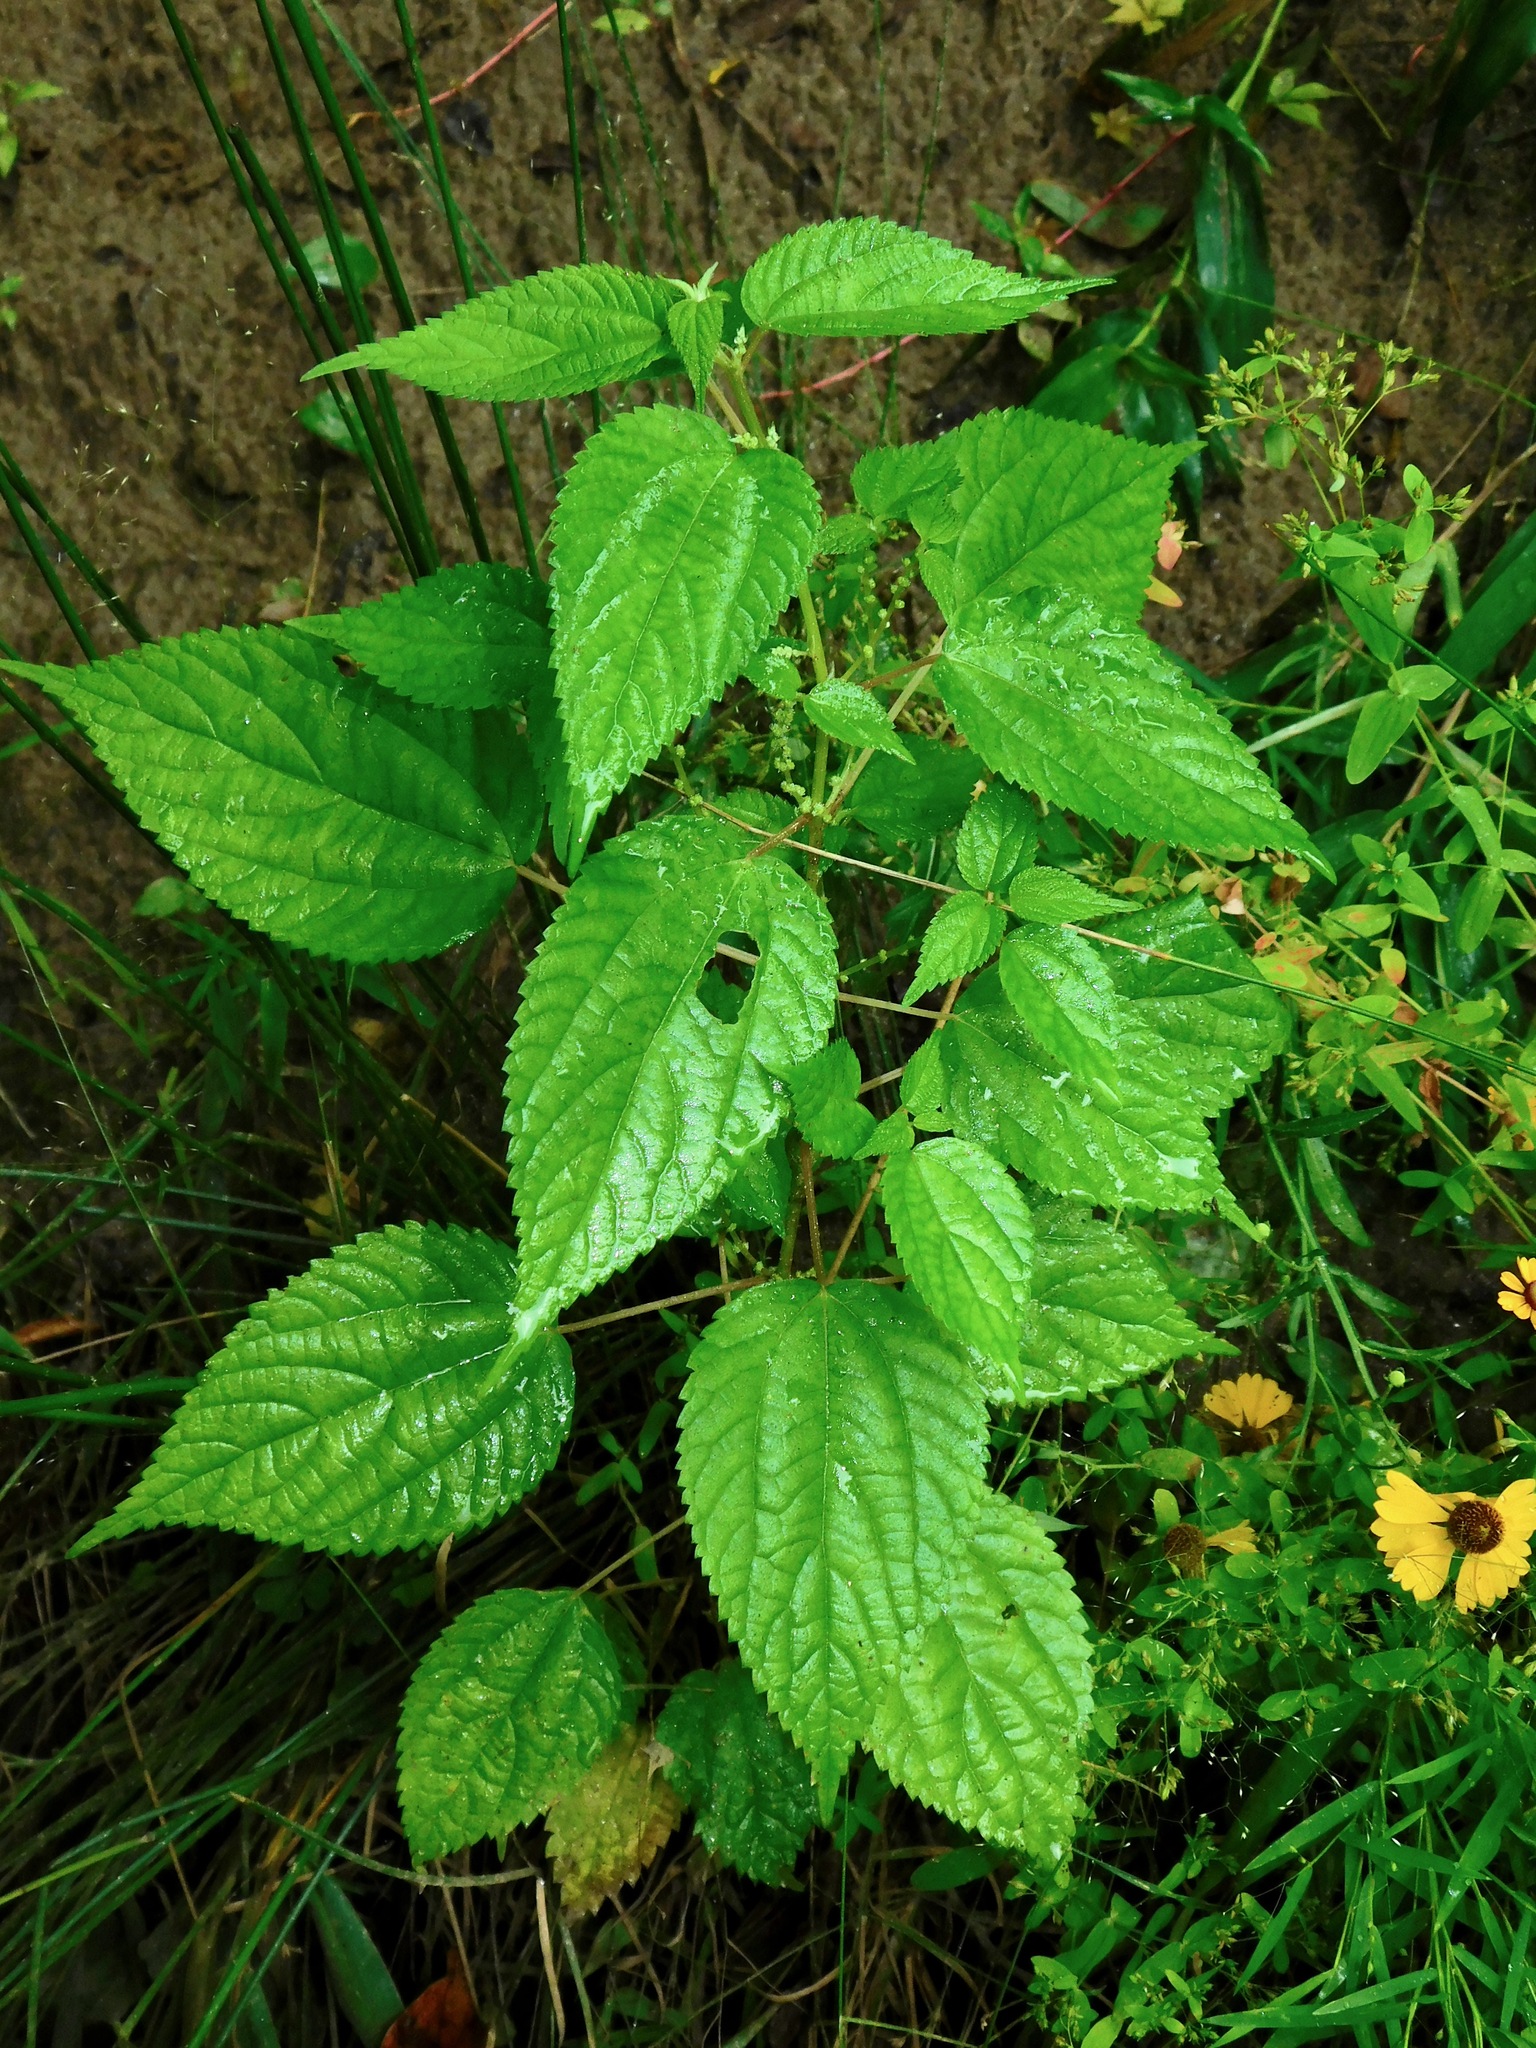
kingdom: Plantae
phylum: Tracheophyta
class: Magnoliopsida
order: Rosales
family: Urticaceae
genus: Boehmeria
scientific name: Boehmeria cylindrica
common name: Bog-hemp
